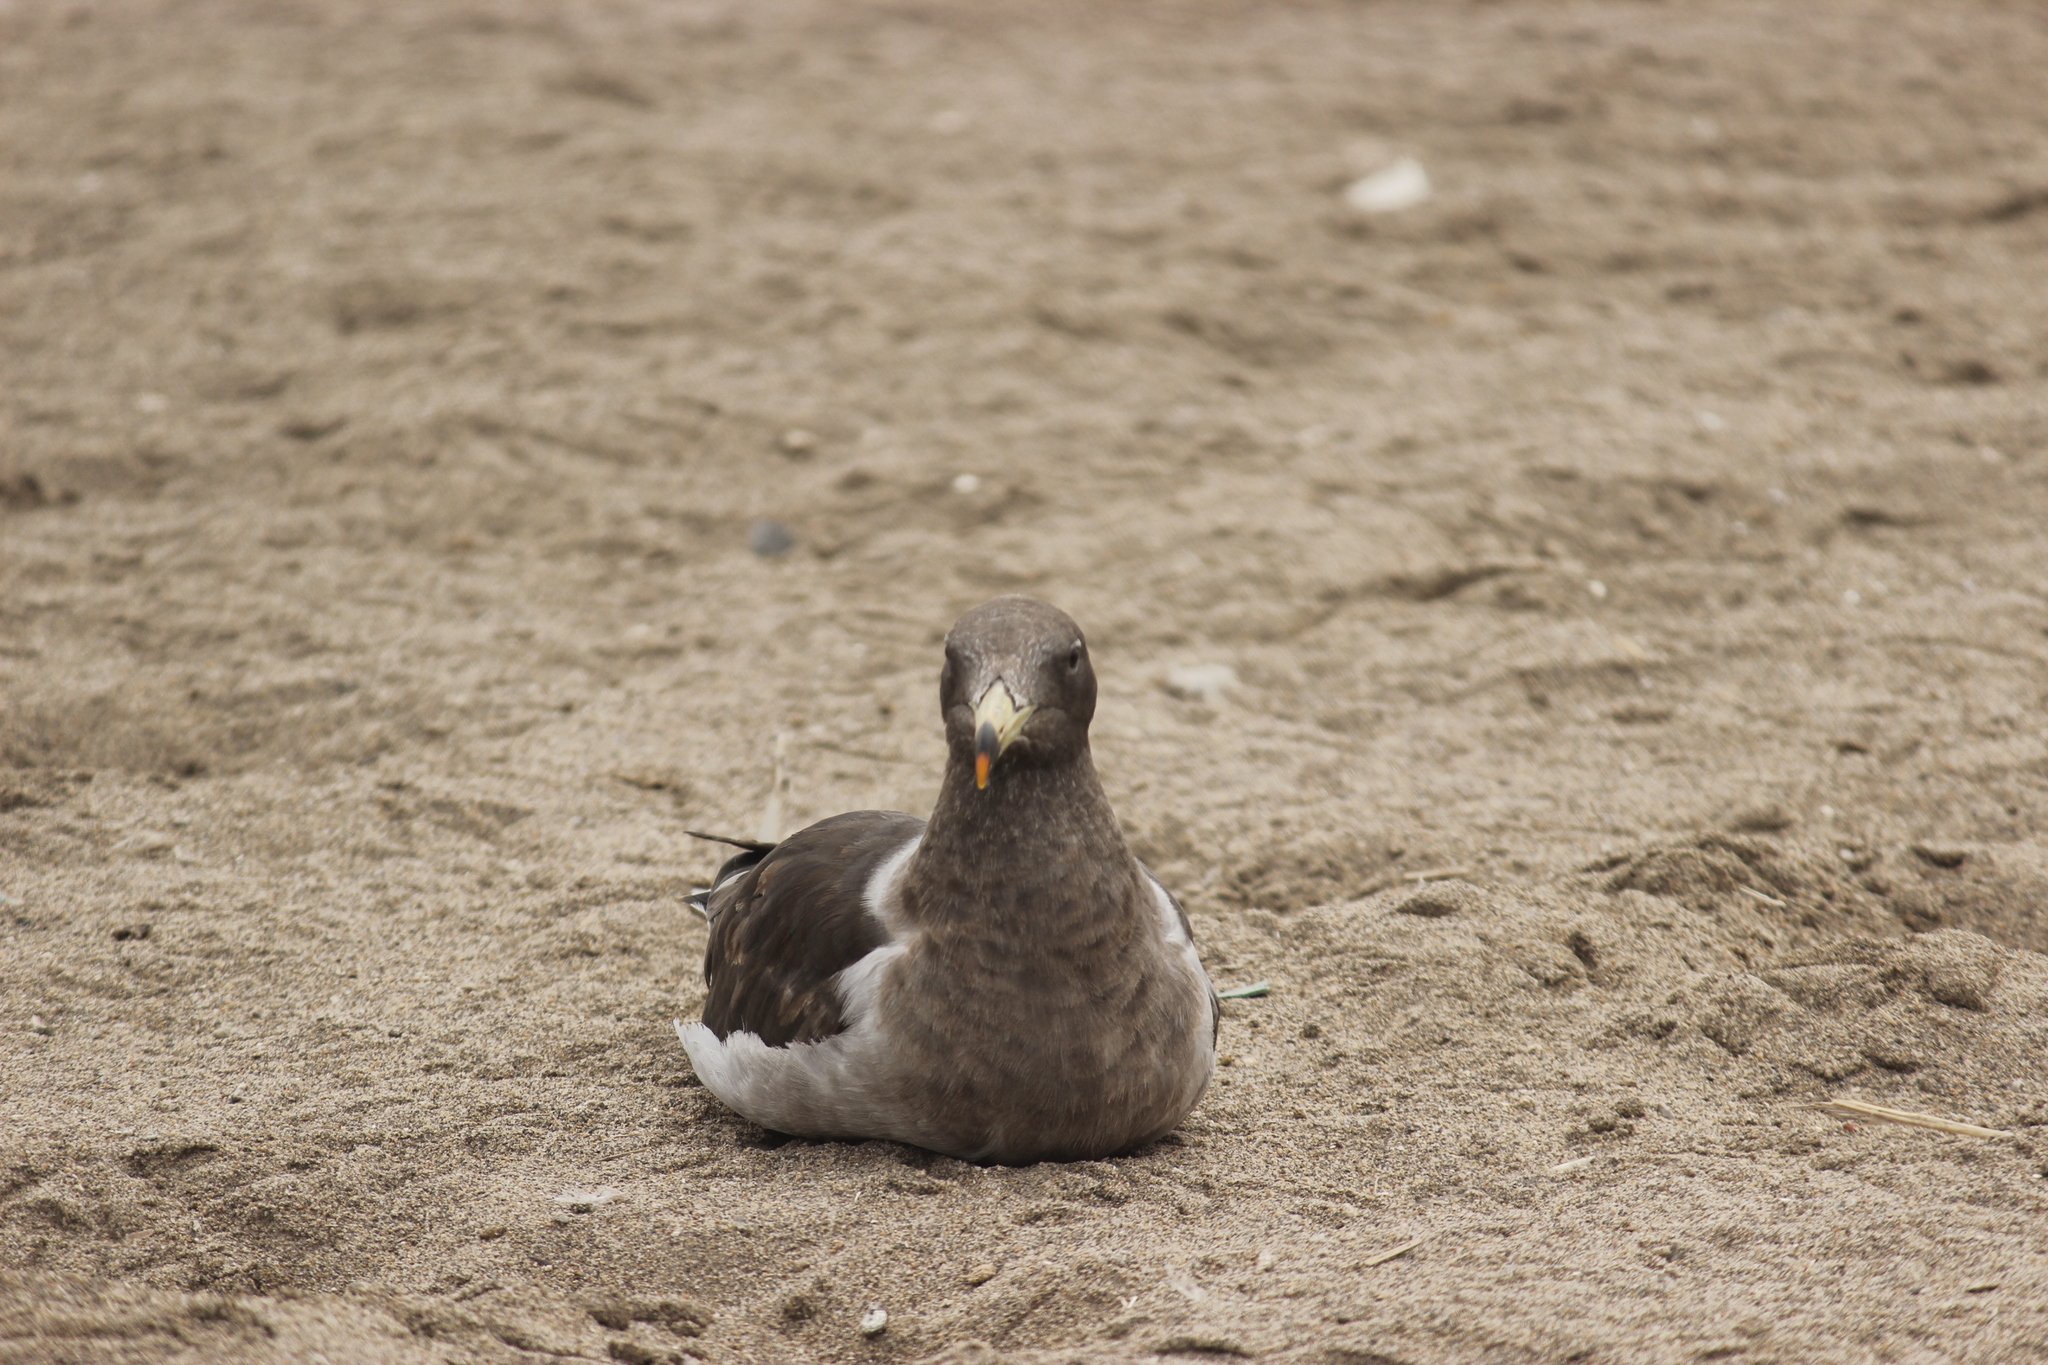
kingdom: Animalia
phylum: Chordata
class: Aves
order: Charadriiformes
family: Laridae
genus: Larus
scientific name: Larus belcheri
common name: Belcher's gull
